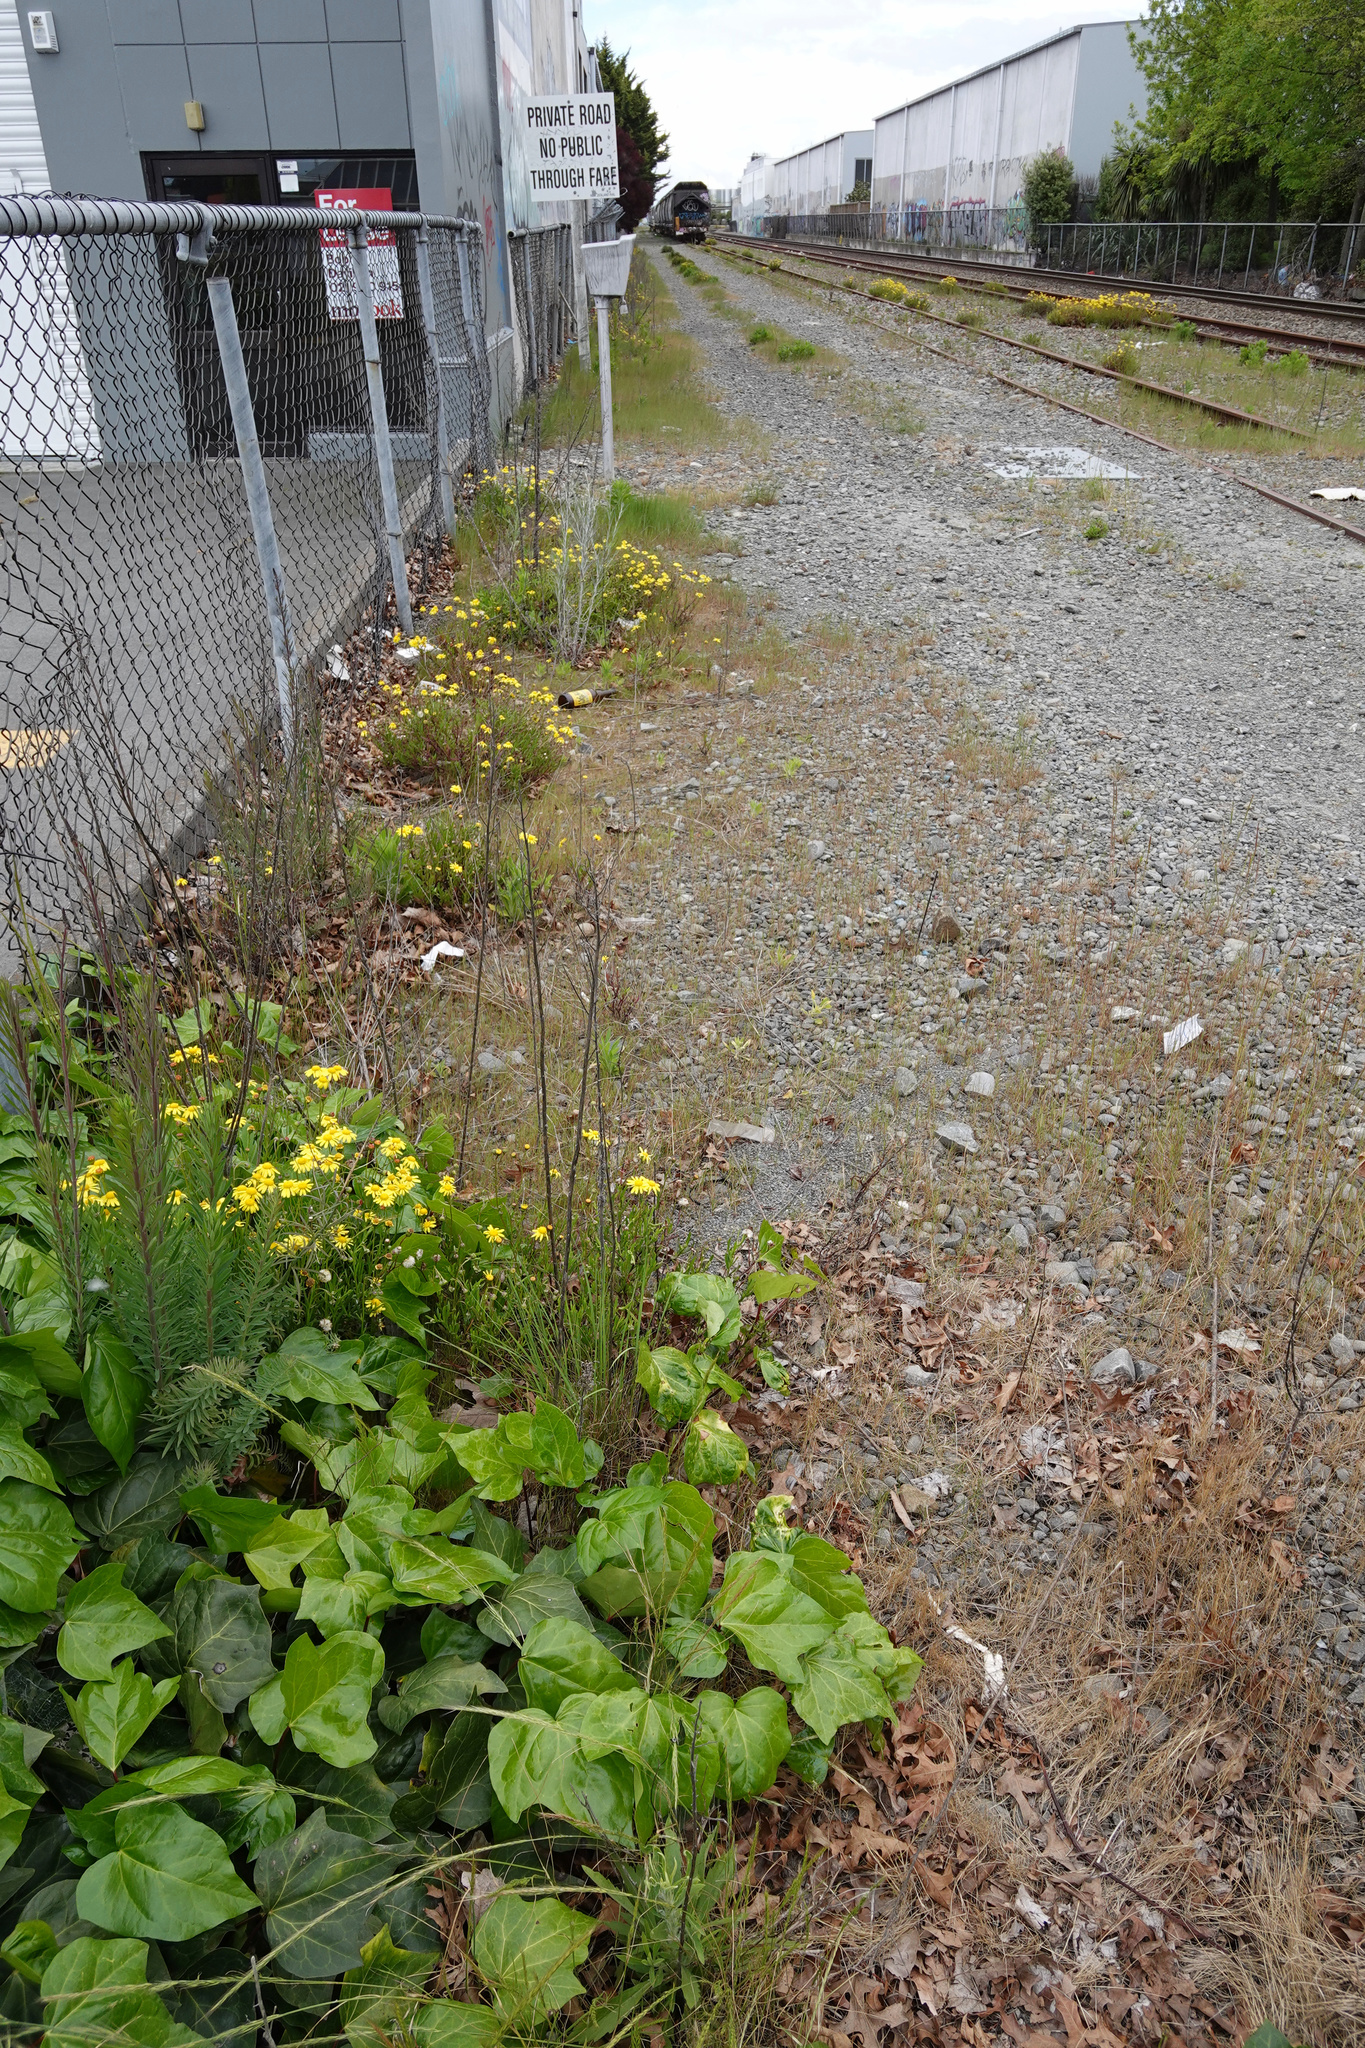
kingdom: Plantae
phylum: Tracheophyta
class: Magnoliopsida
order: Asterales
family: Asteraceae
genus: Senecio
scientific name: Senecio skirrhodon
